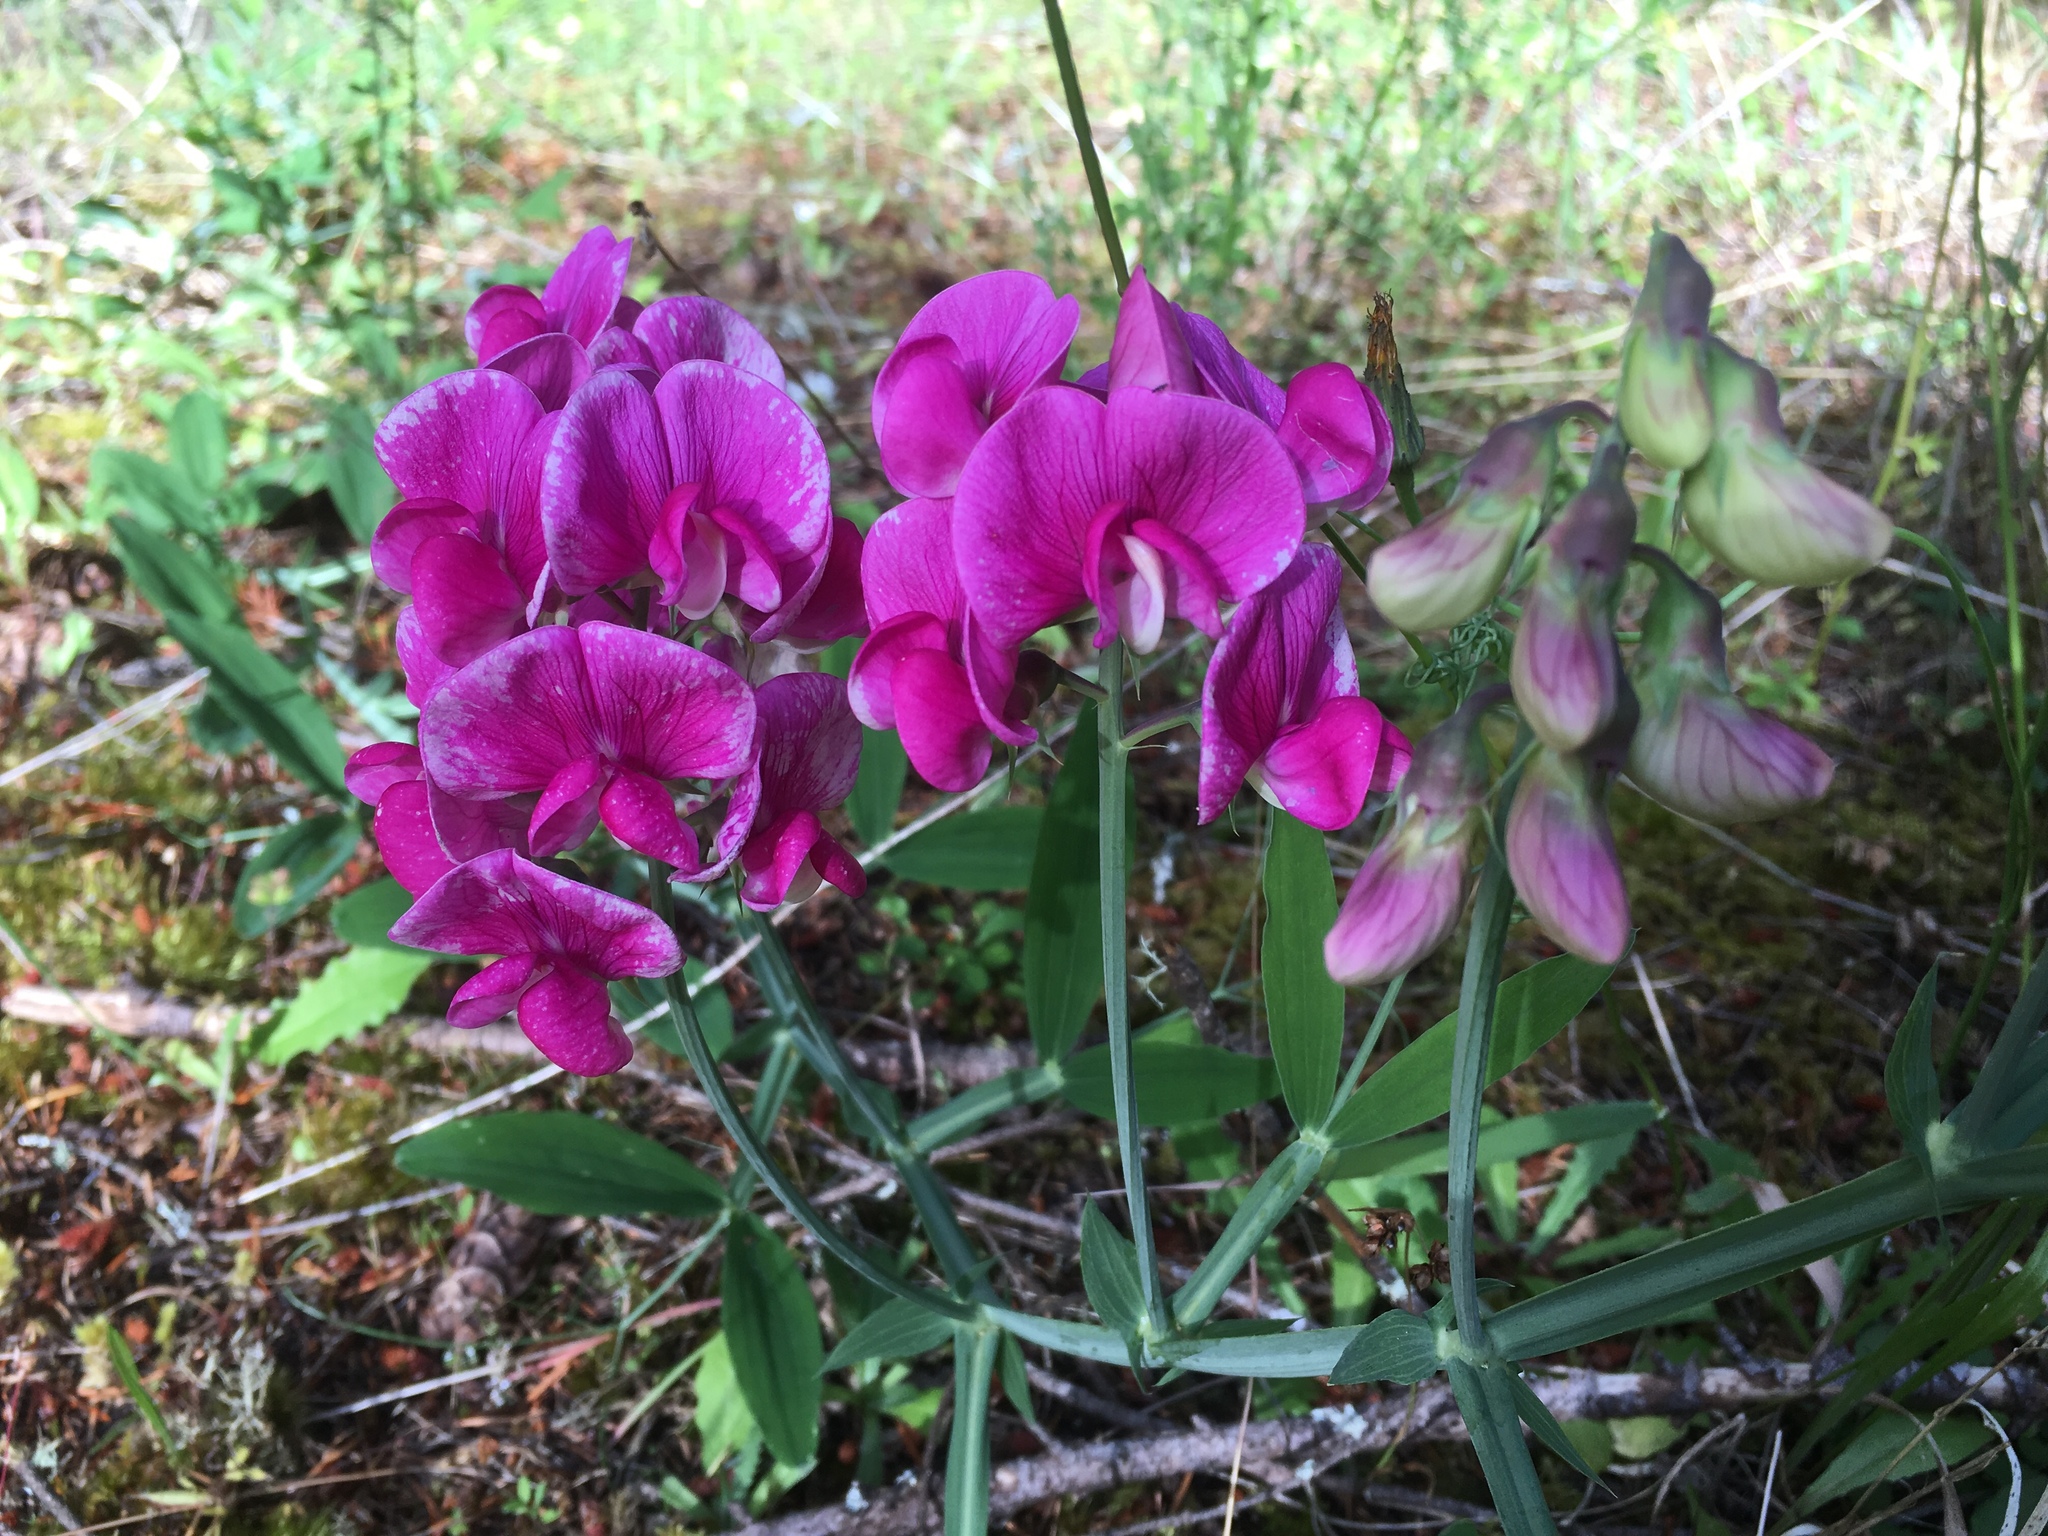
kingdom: Plantae
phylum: Tracheophyta
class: Magnoliopsida
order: Fabales
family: Fabaceae
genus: Lathyrus
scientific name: Lathyrus latifolius
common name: Perennial pea
